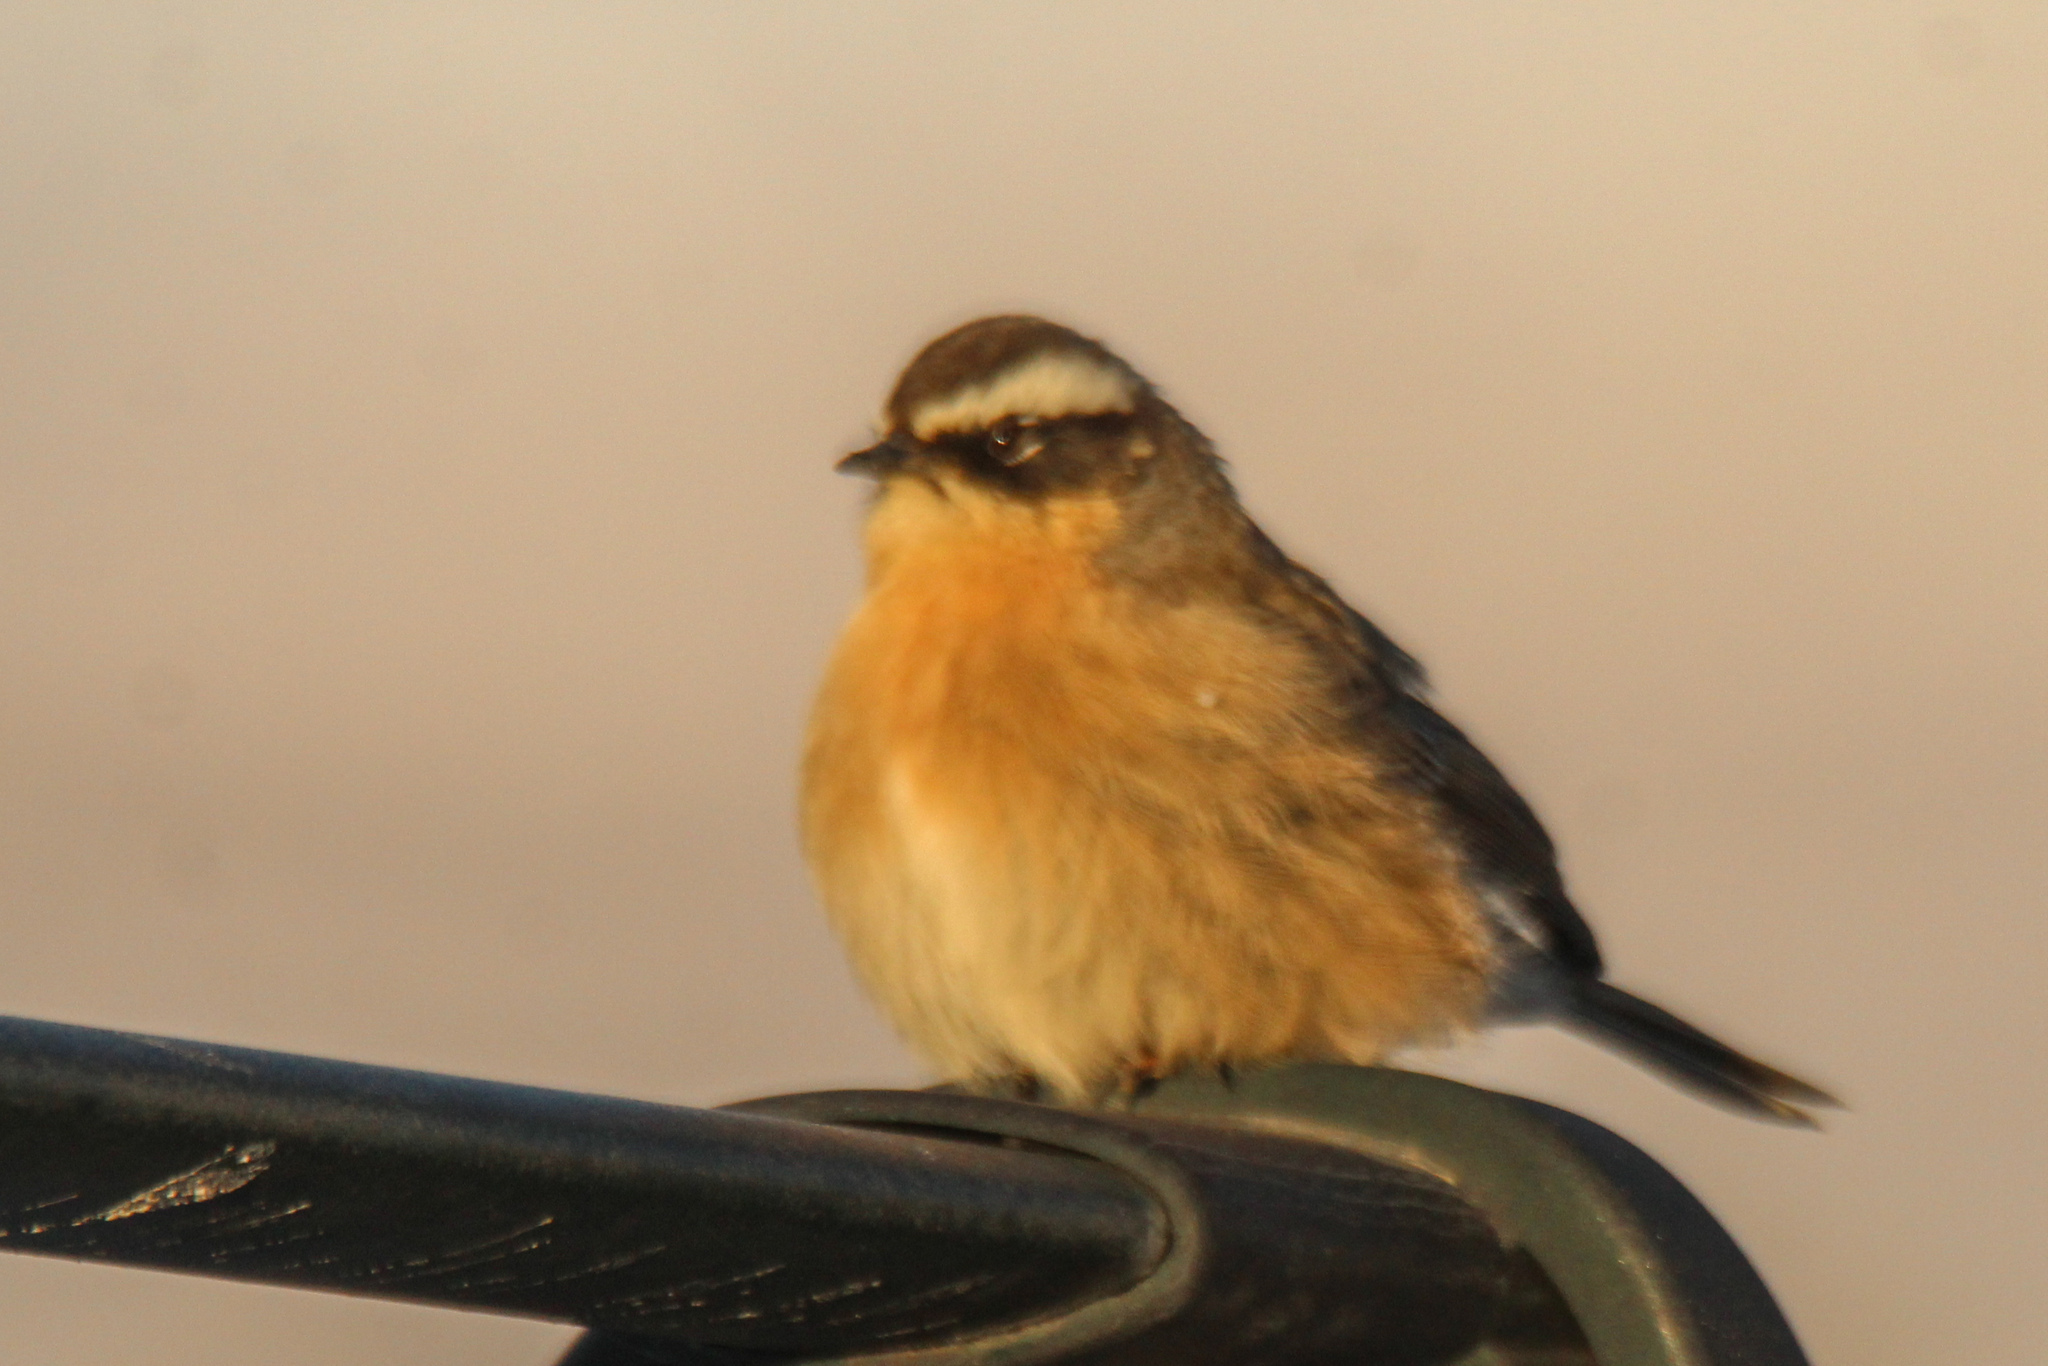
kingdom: Animalia
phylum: Chordata
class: Aves
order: Passeriformes
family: Prunellidae
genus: Prunella
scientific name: Prunella fulvescens
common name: Brown accentor
